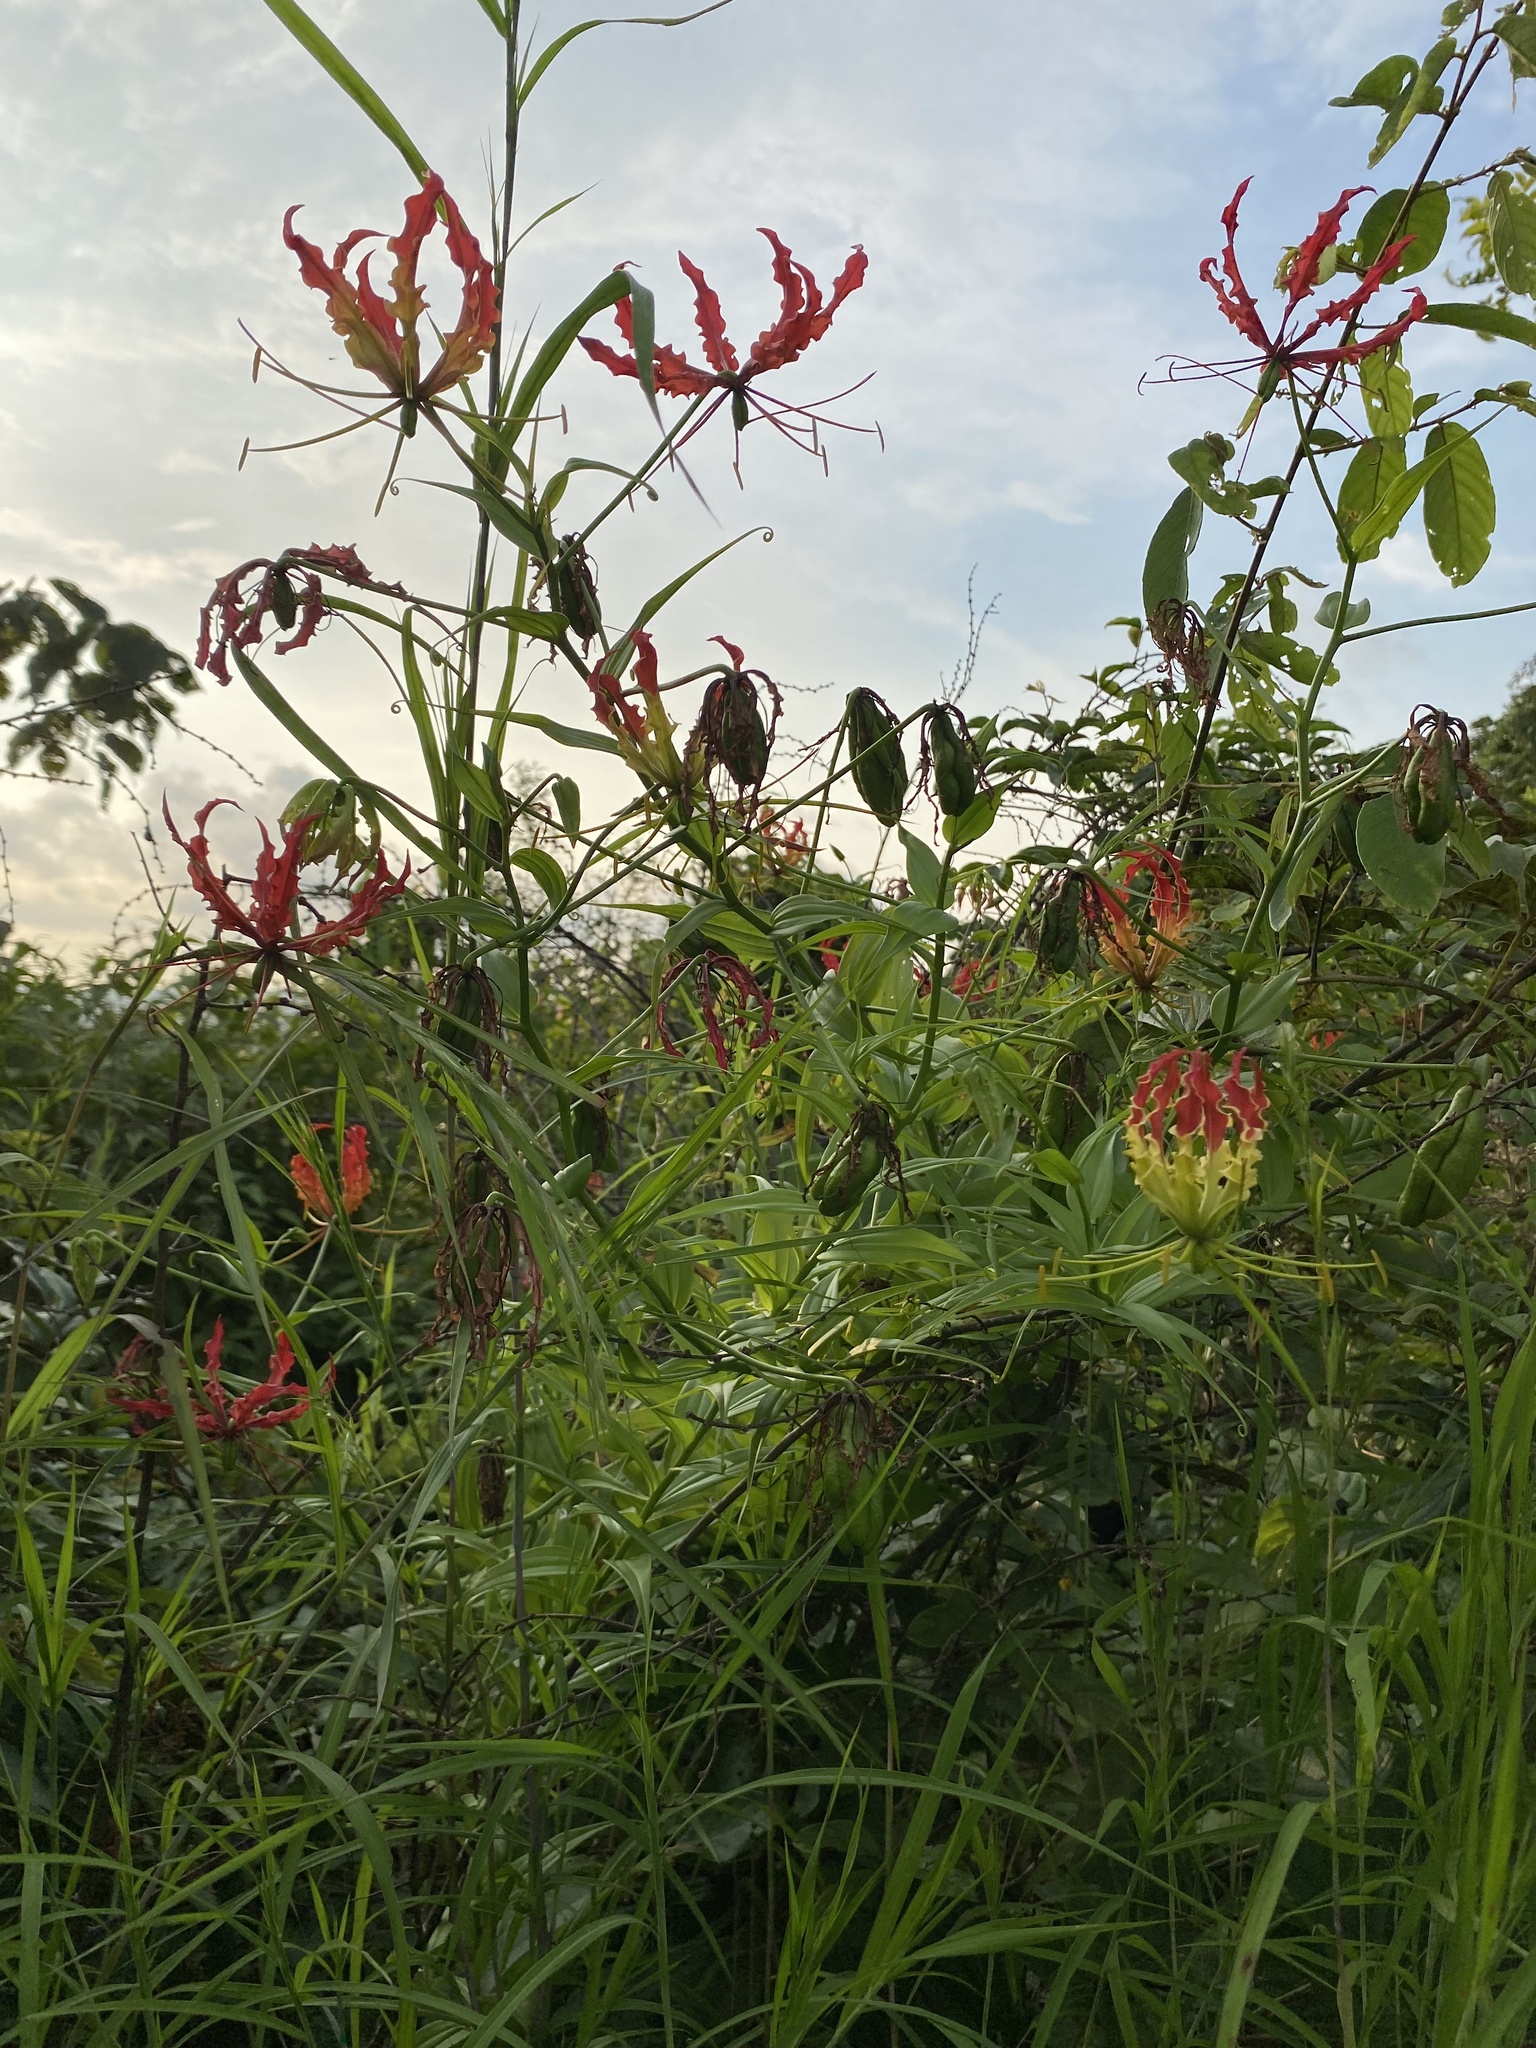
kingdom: Plantae
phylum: Tracheophyta
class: Liliopsida
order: Liliales
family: Colchicaceae
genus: Gloriosa
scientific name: Gloriosa superba
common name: Flame lily
